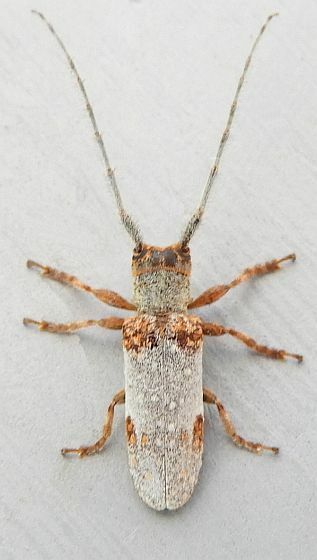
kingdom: Animalia
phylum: Arthropoda
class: Insecta
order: Coleoptera
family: Cerambycidae
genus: Oncideres
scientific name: Oncideres quercus
